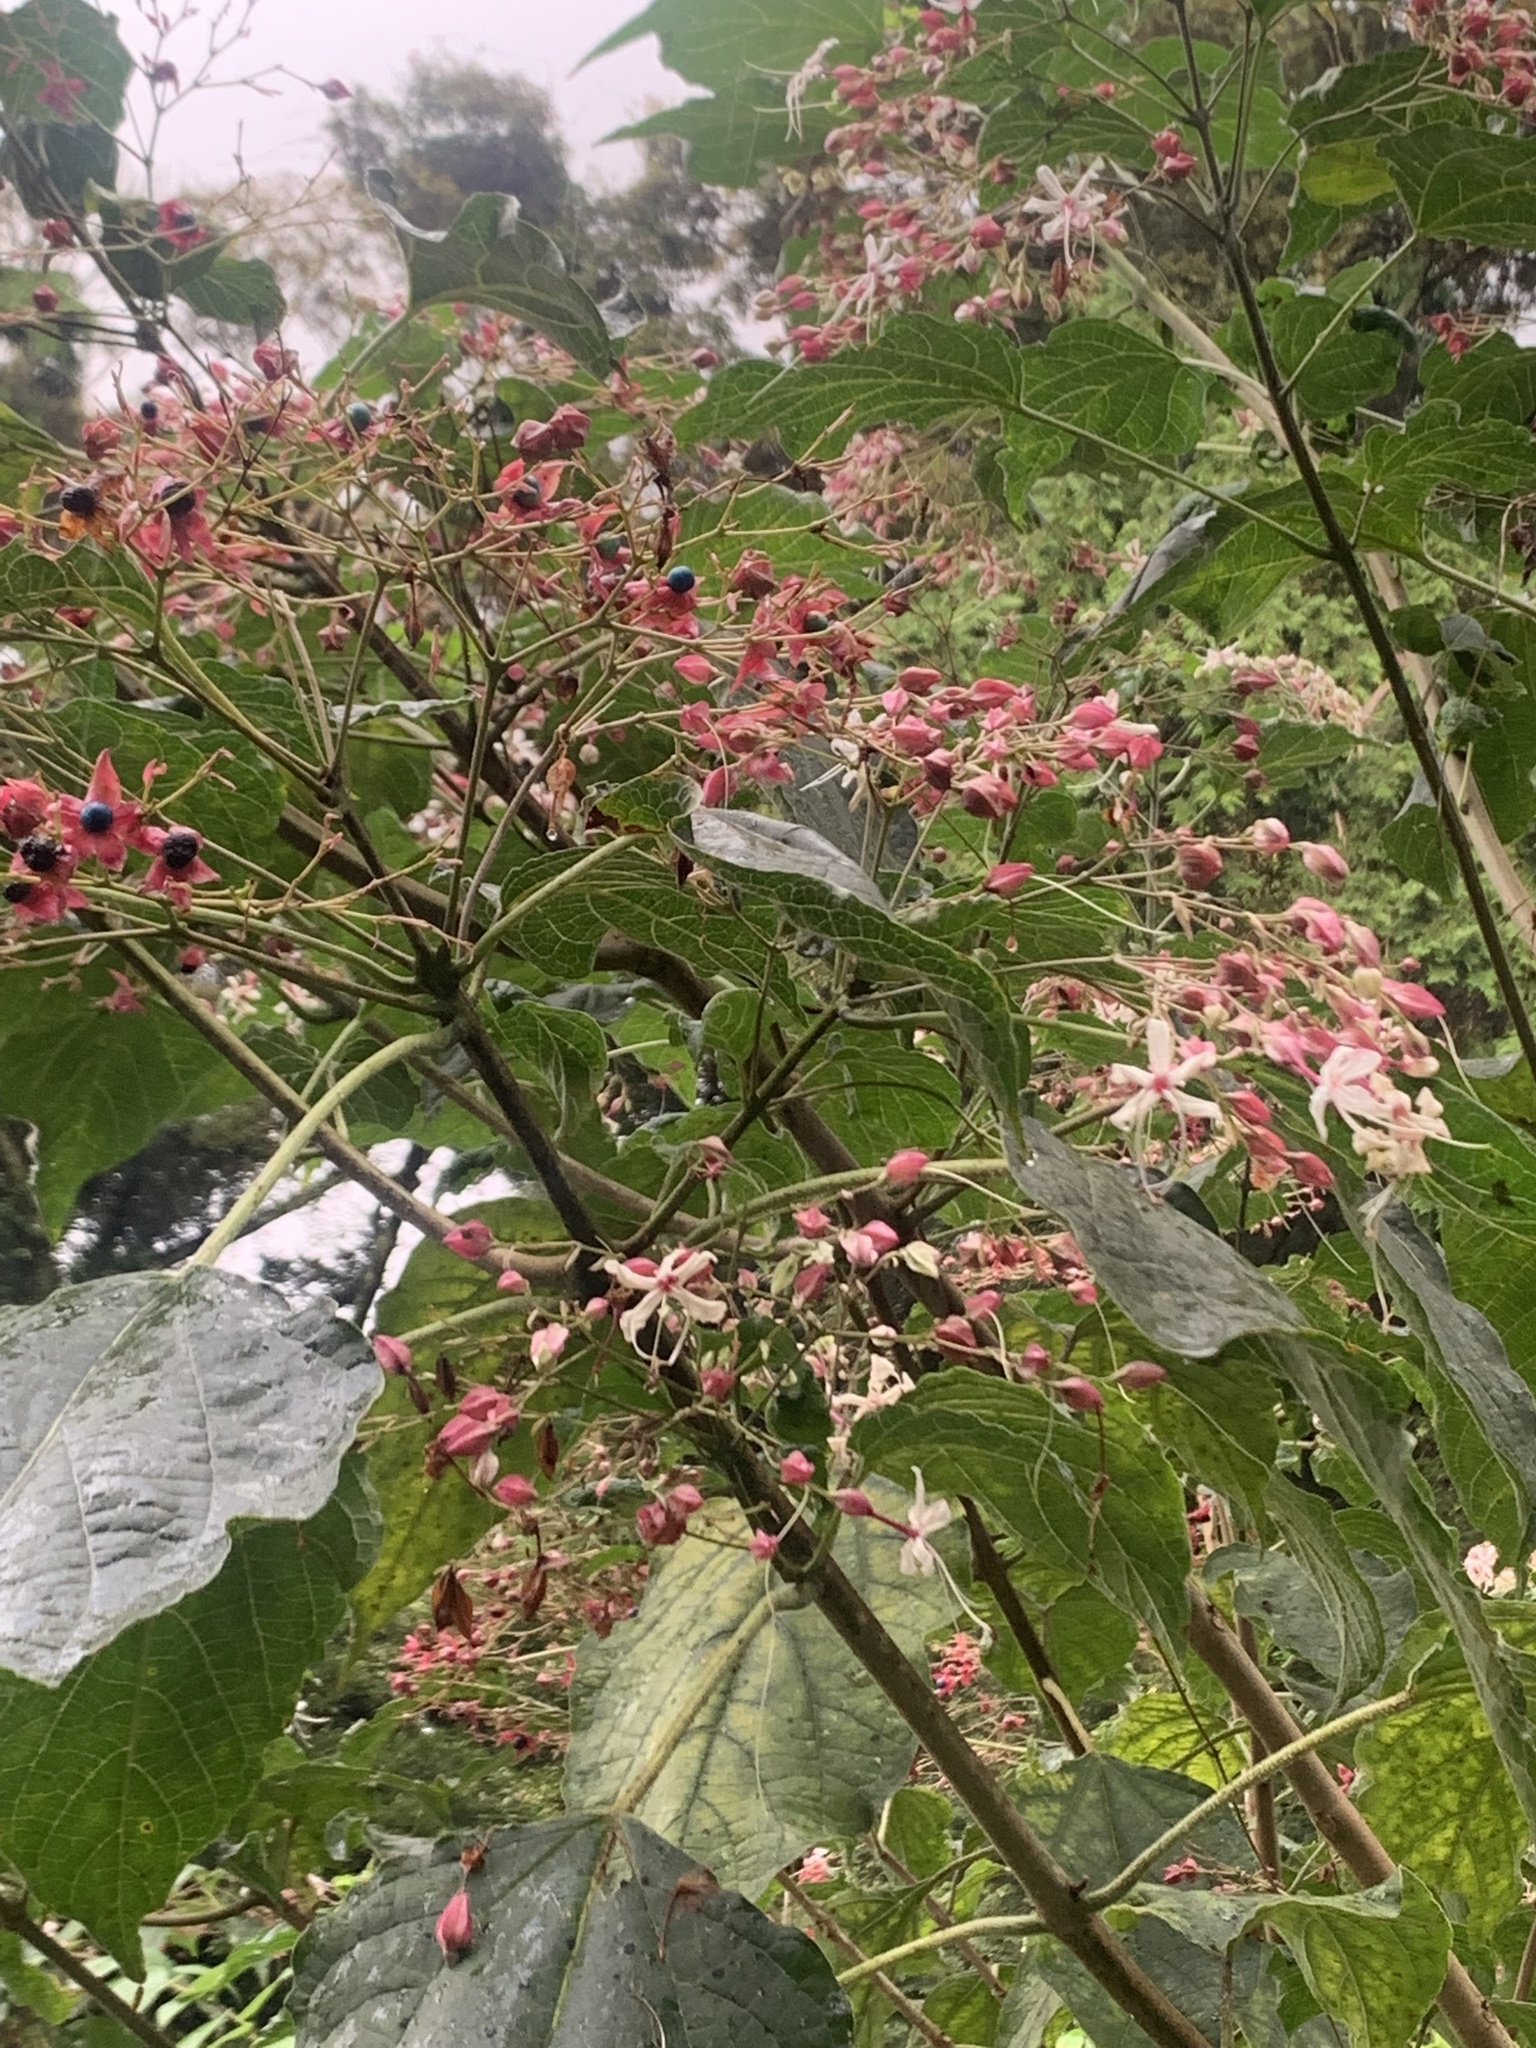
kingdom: Plantae
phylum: Tracheophyta
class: Magnoliopsida
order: Lamiales
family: Lamiaceae
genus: Clerodendrum
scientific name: Clerodendrum trichotomum
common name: Harlequin glorybower
